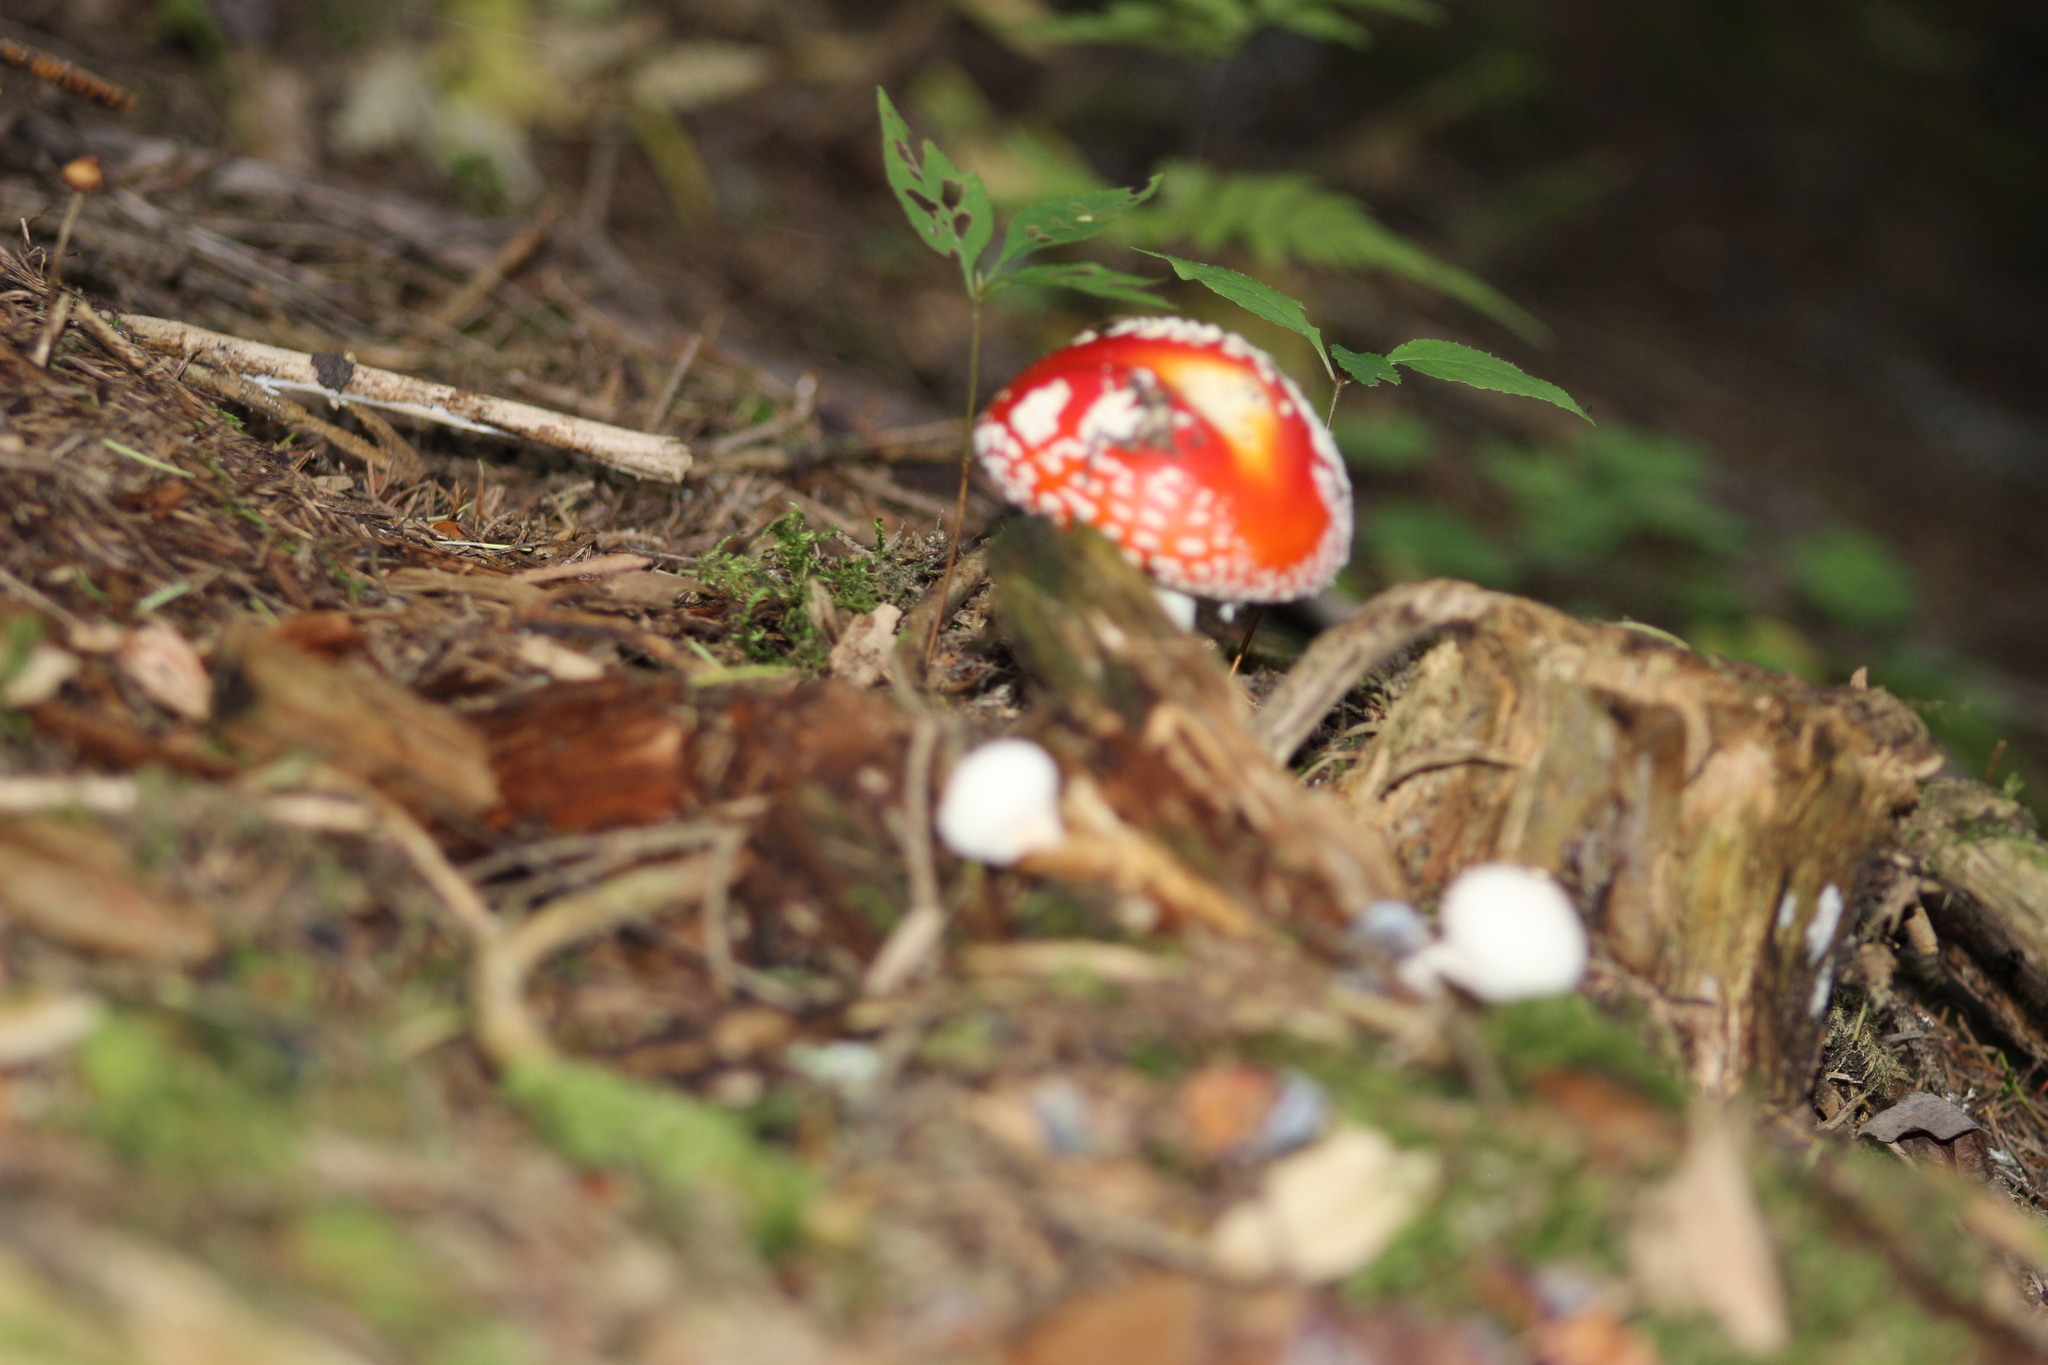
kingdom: Fungi
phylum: Basidiomycota
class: Agaricomycetes
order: Agaricales
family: Amanitaceae
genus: Amanita
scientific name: Amanita muscaria
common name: Fly agaric
